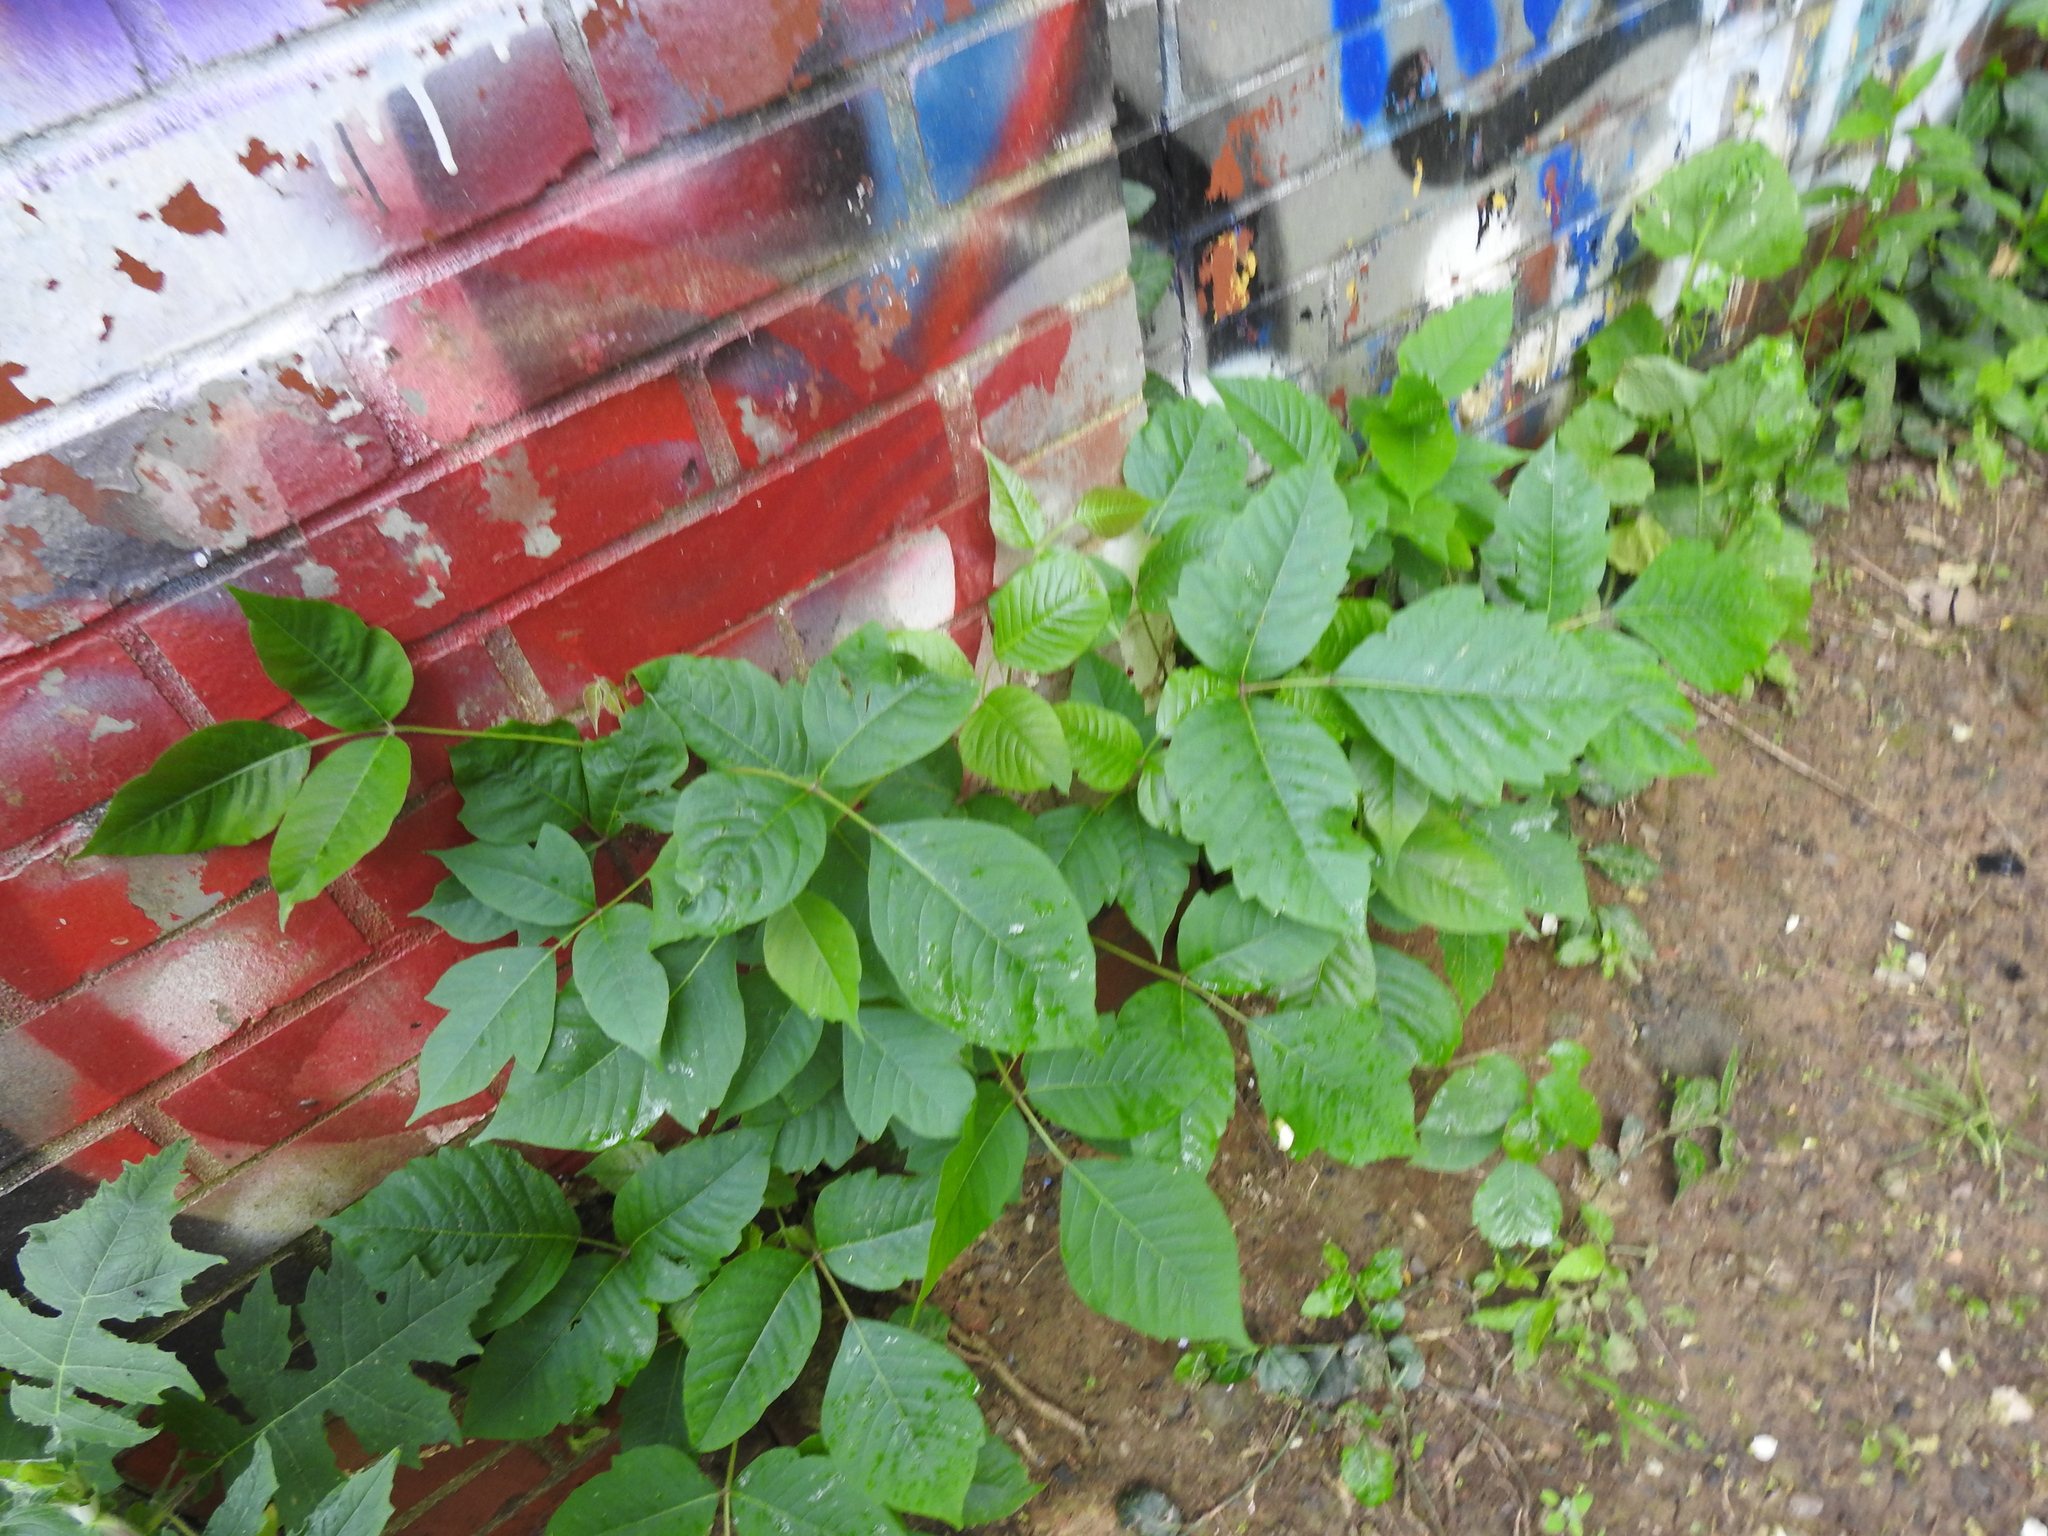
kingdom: Plantae
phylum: Tracheophyta
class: Magnoliopsida
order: Sapindales
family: Anacardiaceae
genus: Toxicodendron
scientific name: Toxicodendron radicans
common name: Poison ivy
